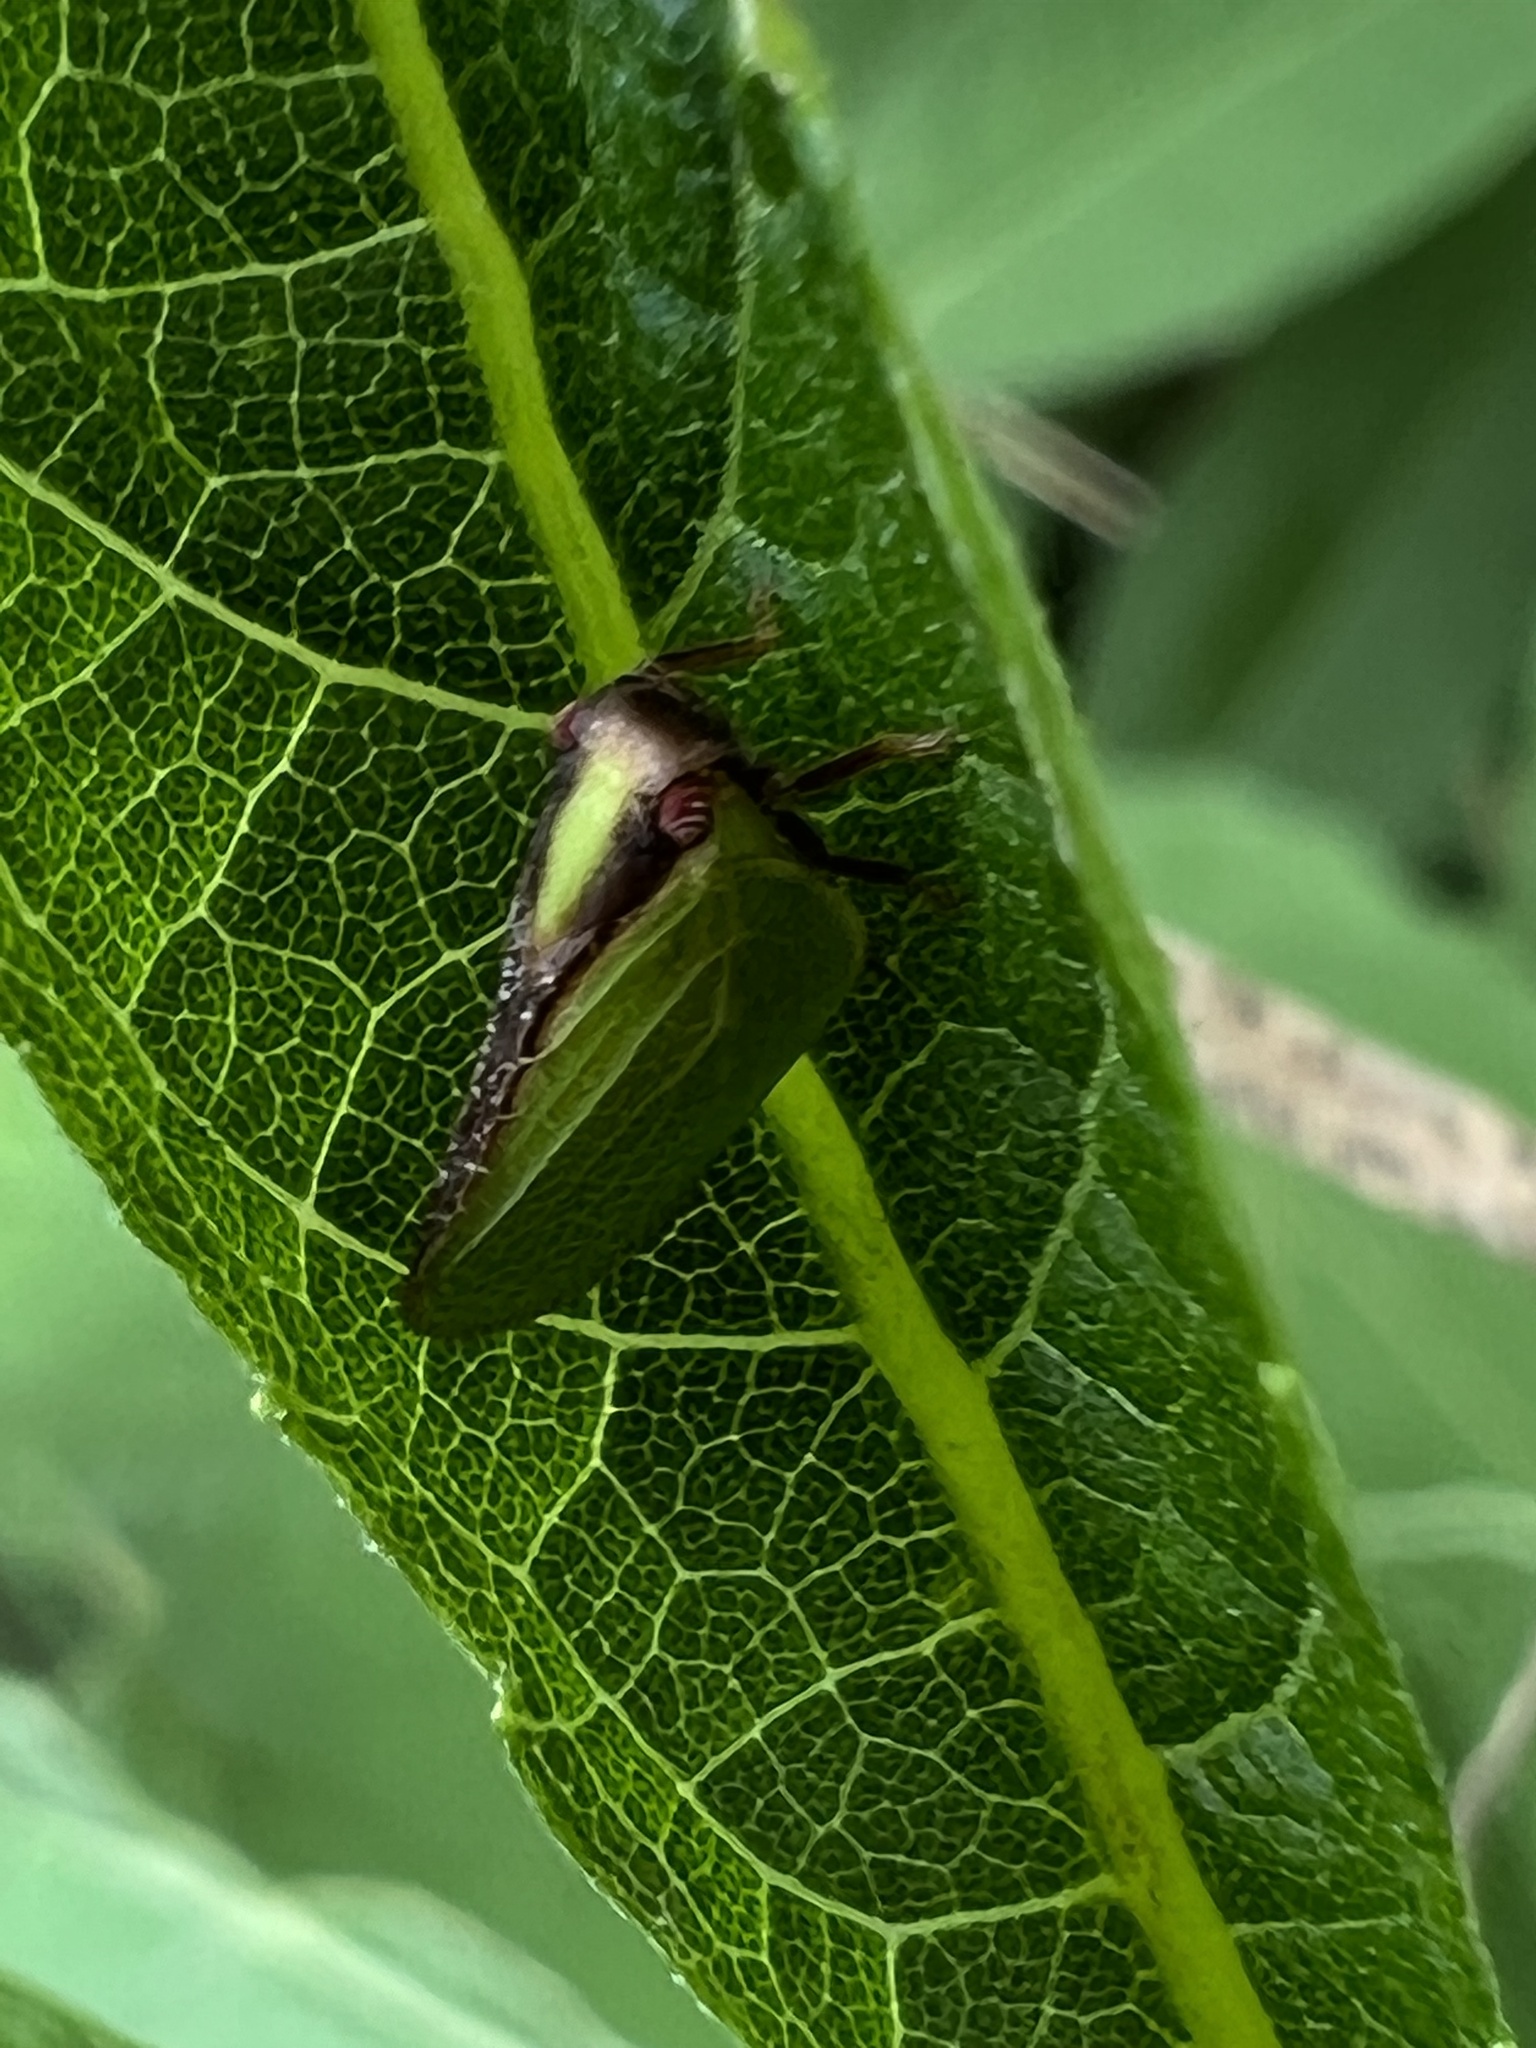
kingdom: Animalia
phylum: Arthropoda
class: Insecta
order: Hemiptera
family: Acanaloniidae
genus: Acanalonia
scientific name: Acanalonia bivittata
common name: Two-striped planthopper
